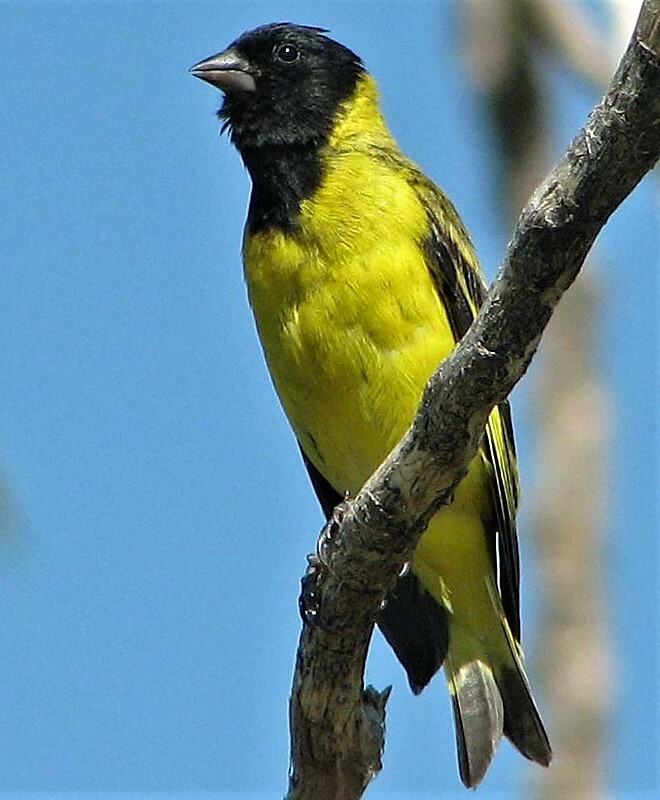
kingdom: Animalia
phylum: Chordata
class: Aves
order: Passeriformes
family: Fringillidae
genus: Spinus
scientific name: Spinus magellanicus
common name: Hooded siskin
